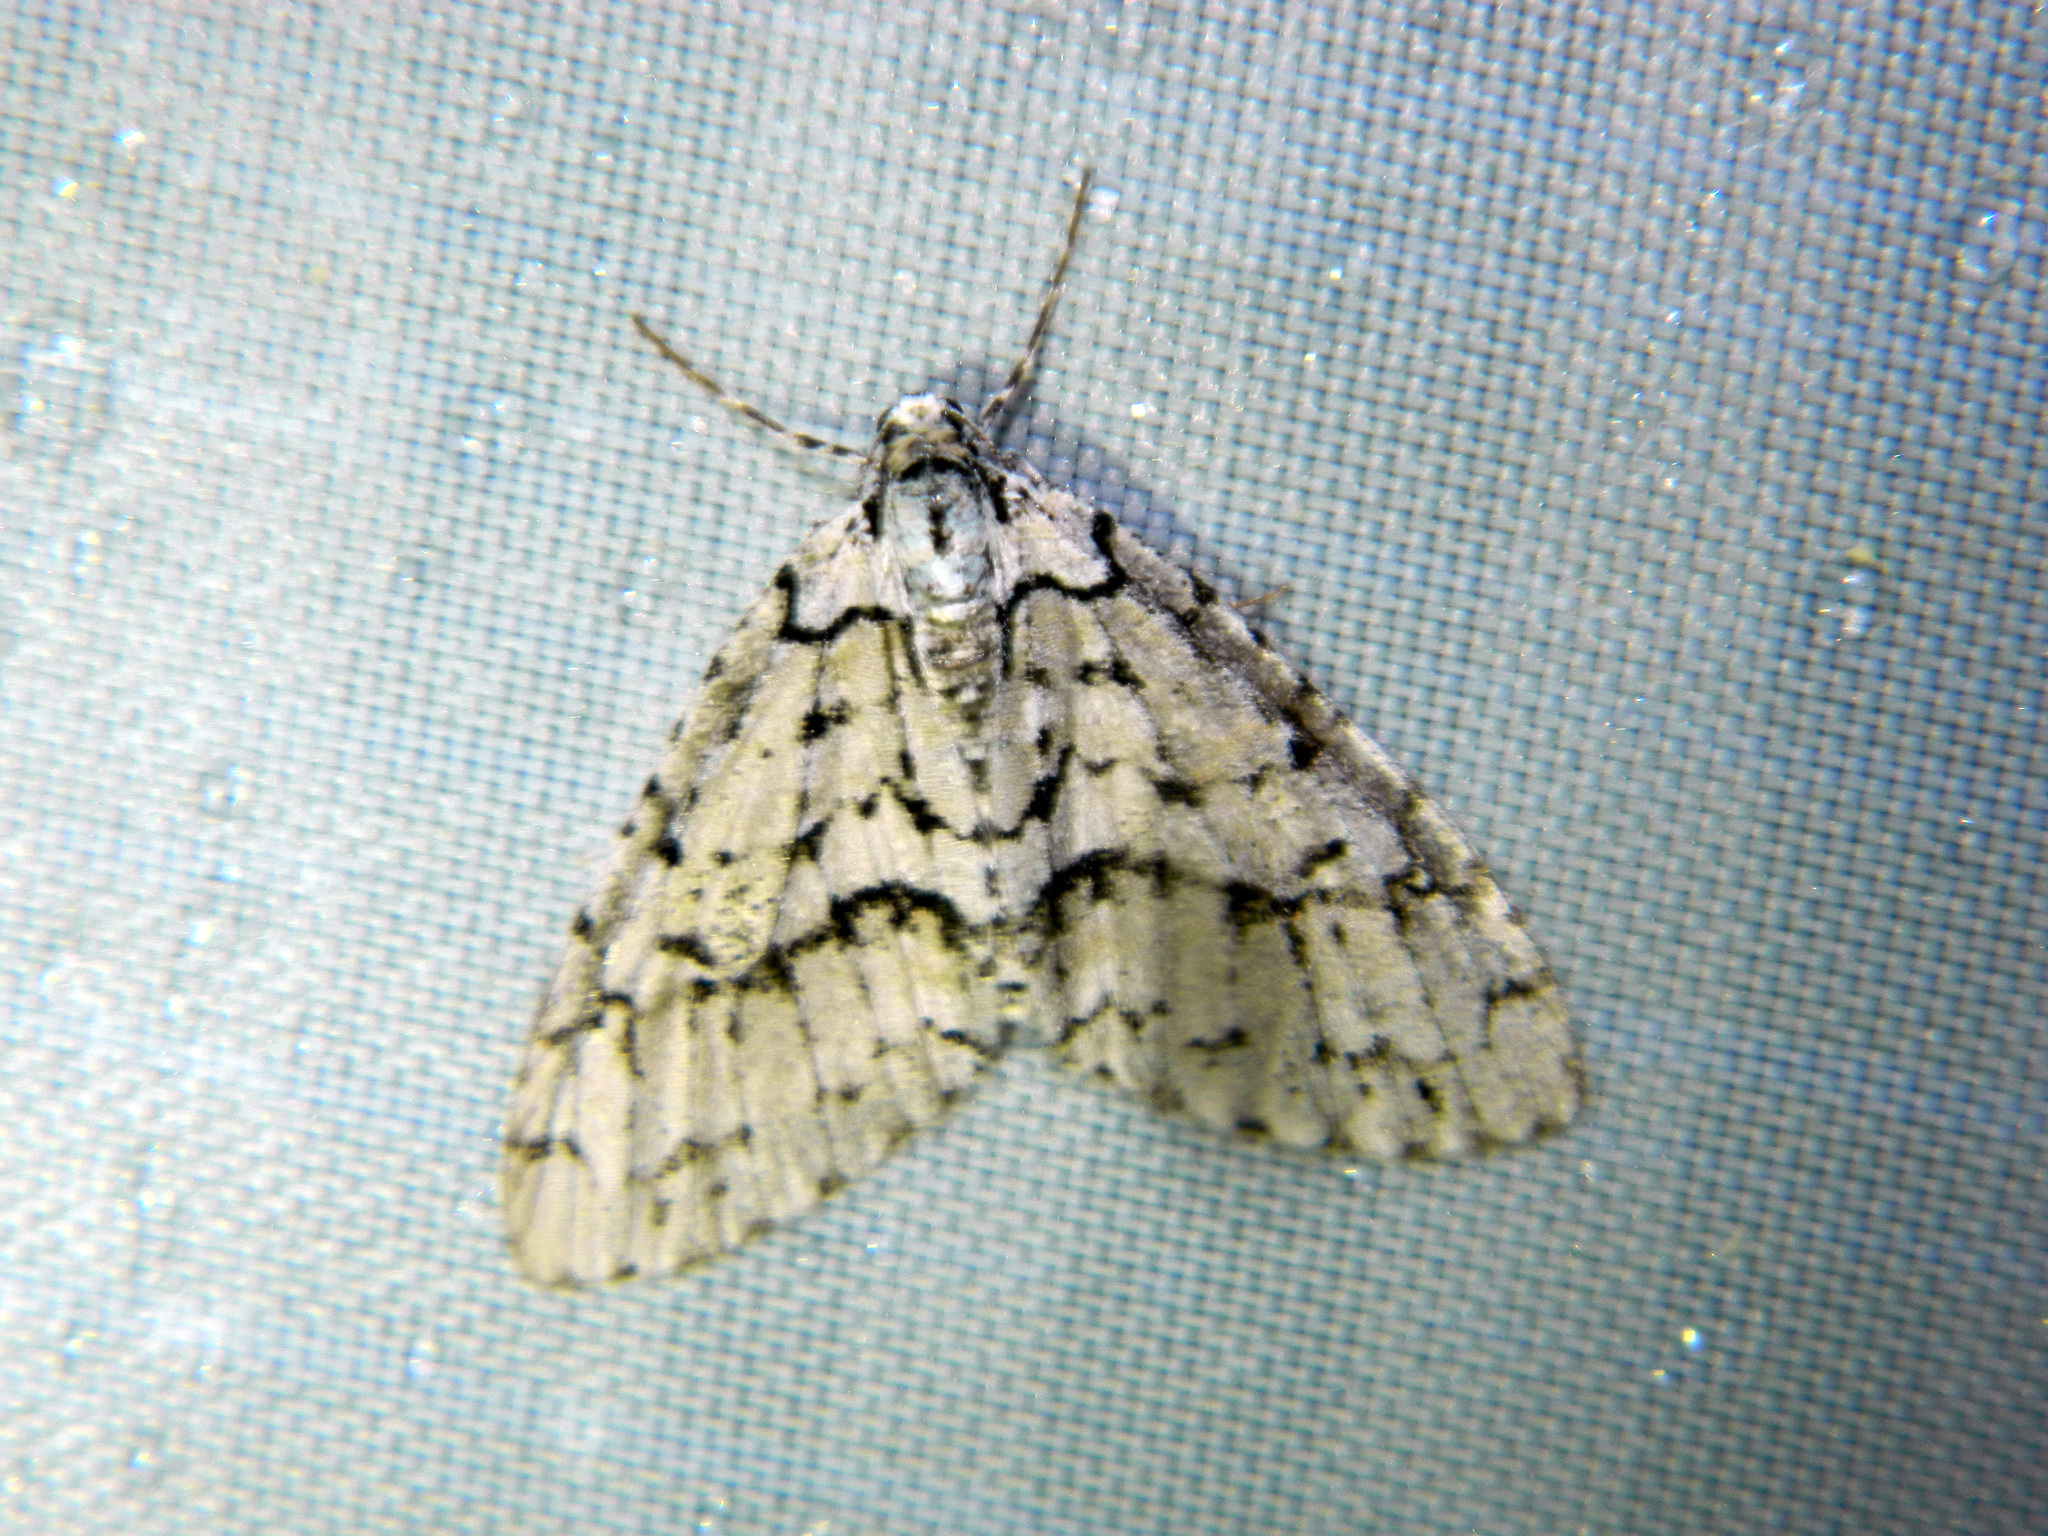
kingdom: Animalia
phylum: Arthropoda
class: Insecta
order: Lepidoptera
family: Geometridae
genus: Cladara
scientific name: Cladara atroliturata
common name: Scribbler
